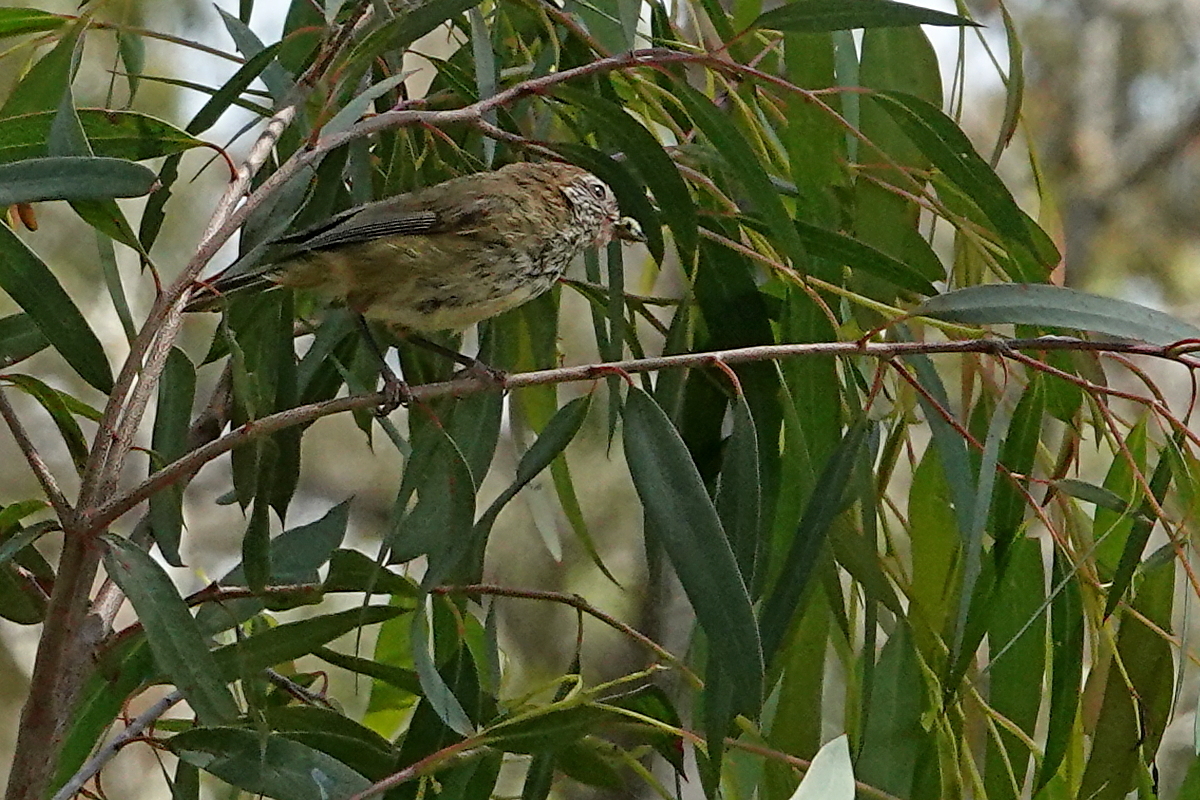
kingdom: Animalia
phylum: Chordata
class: Aves
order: Passeriformes
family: Acanthizidae
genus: Acanthiza
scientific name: Acanthiza lineata
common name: Striated thornbill
